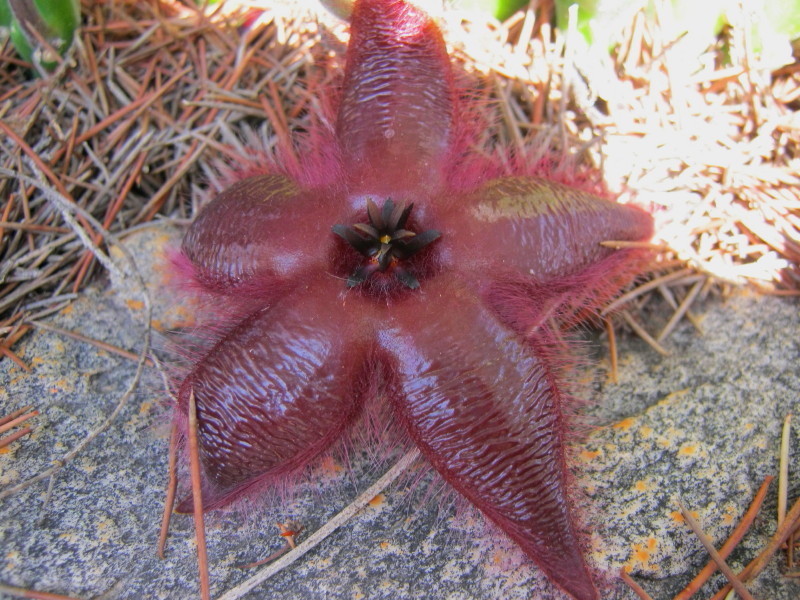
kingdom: Plantae
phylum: Tracheophyta
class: Magnoliopsida
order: Gentianales
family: Apocynaceae
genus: Ceropegia
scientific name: Ceropegia pulvinata
